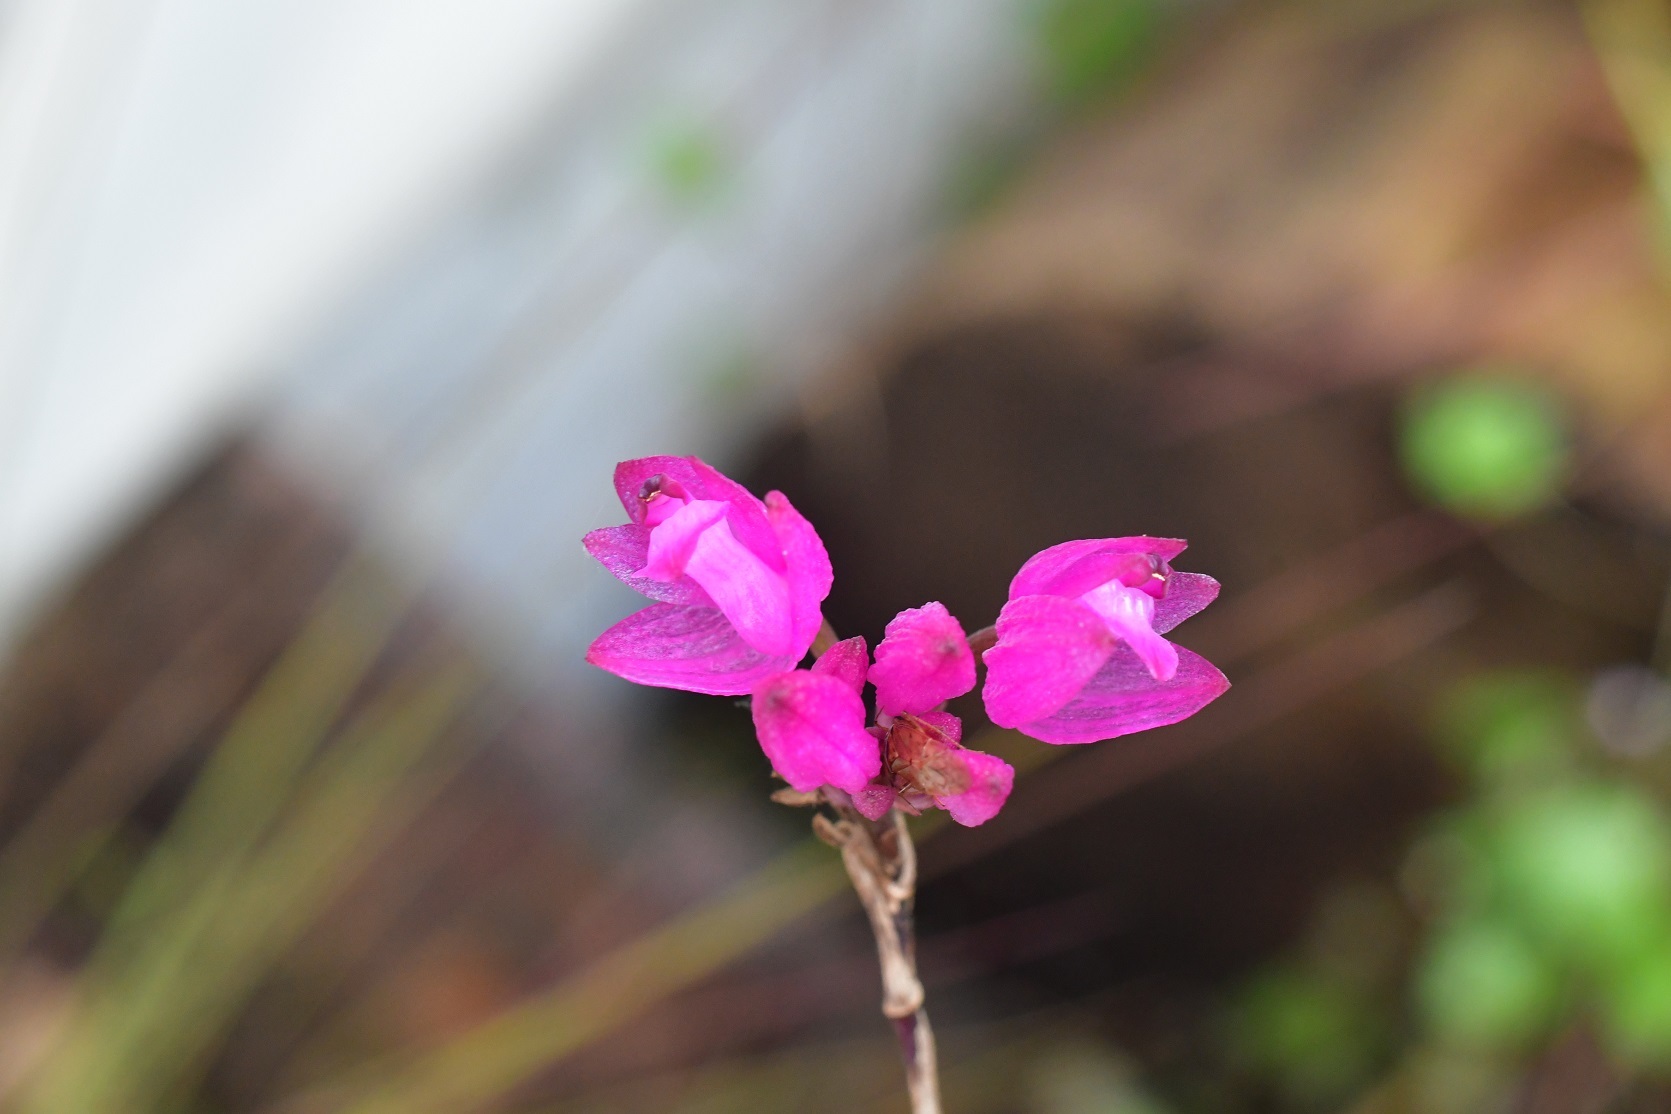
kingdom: Plantae
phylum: Tracheophyta
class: Liliopsida
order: Asparagales
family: Orchidaceae
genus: Domingoa
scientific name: Domingoa purpurea
